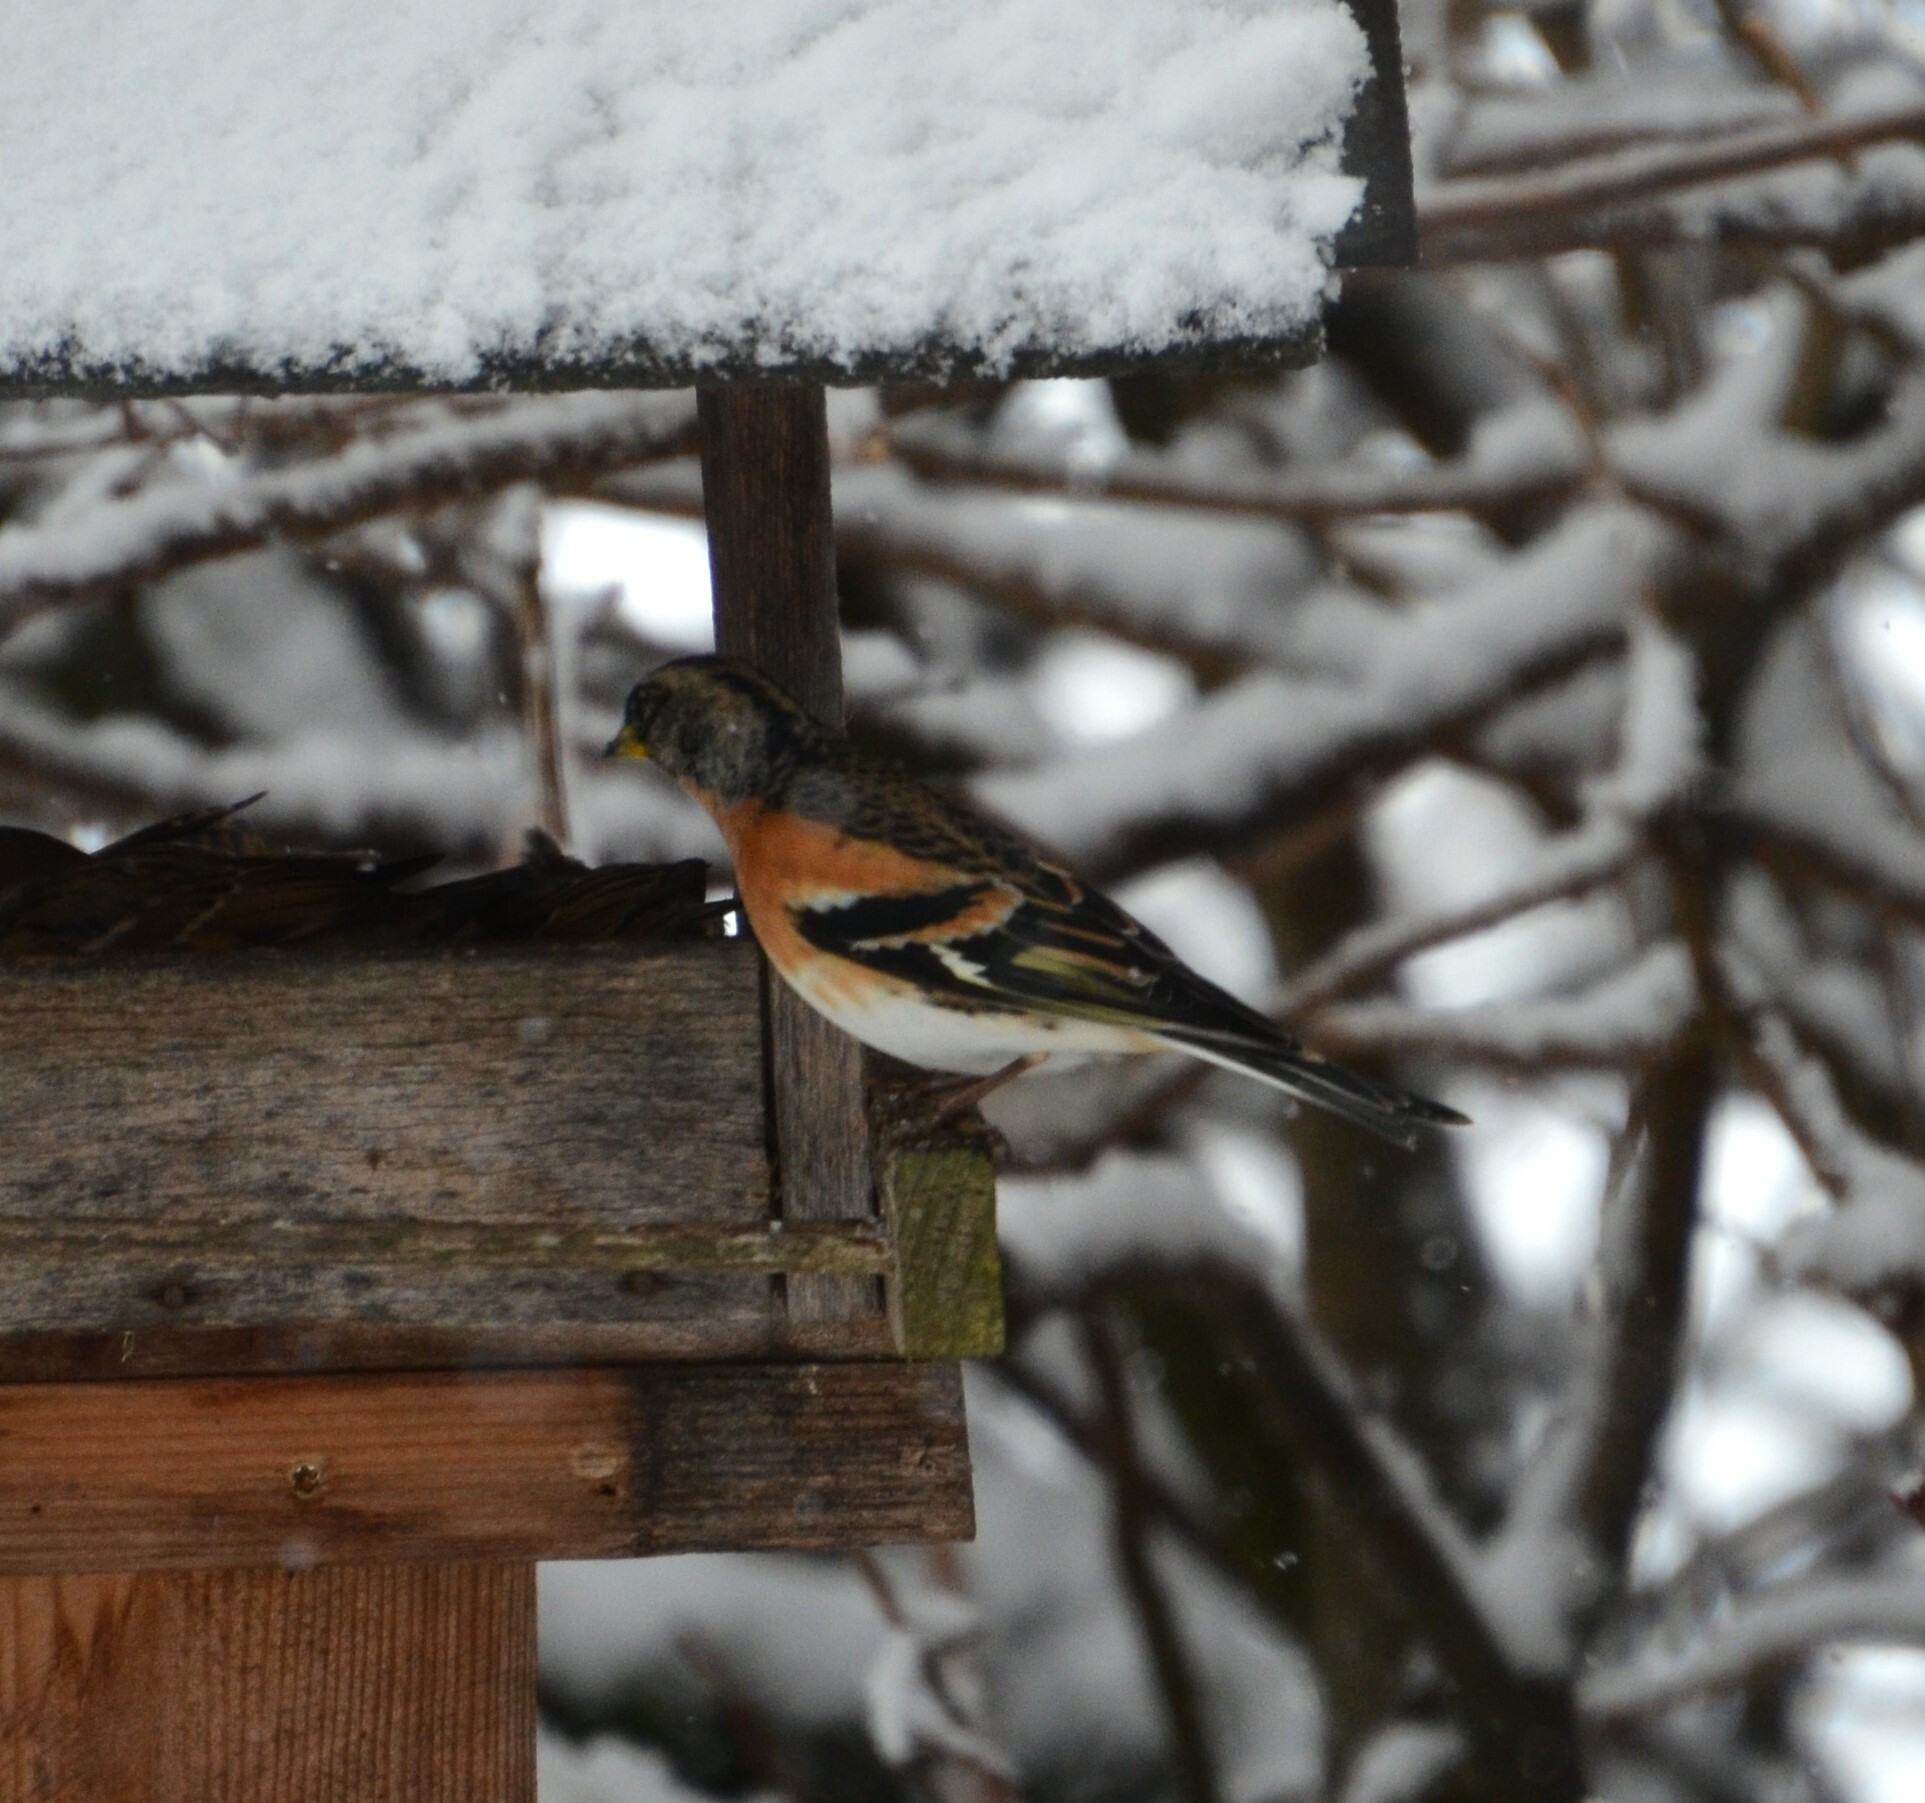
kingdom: Animalia
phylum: Chordata
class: Aves
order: Passeriformes
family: Fringillidae
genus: Fringilla
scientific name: Fringilla montifringilla
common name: Brambling
